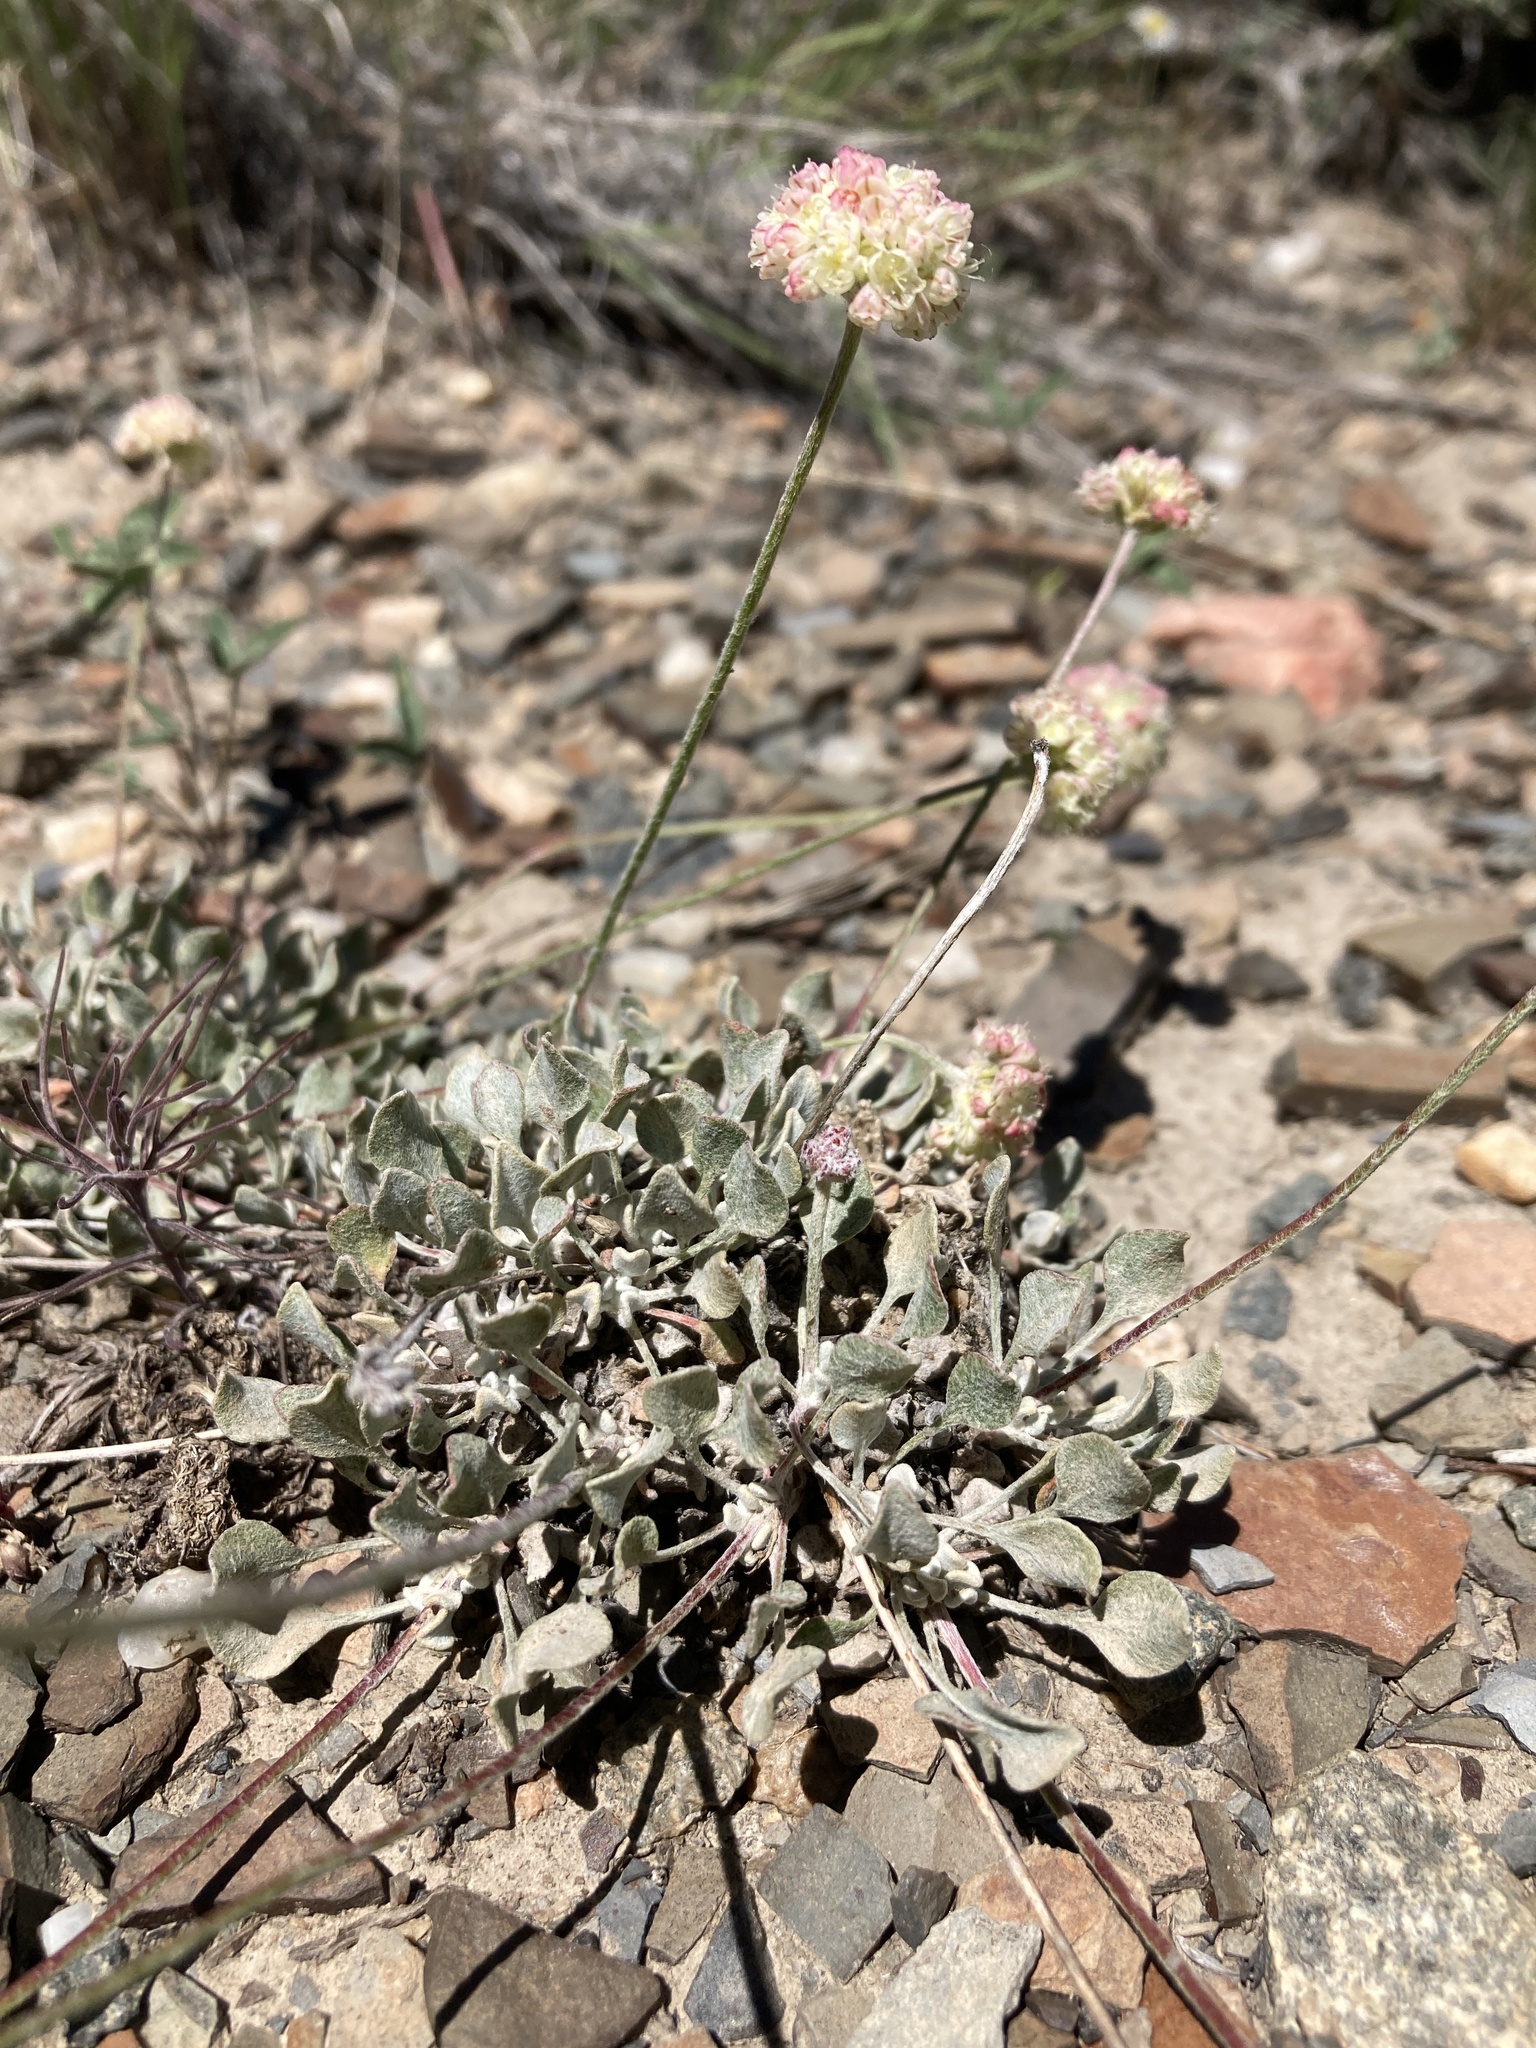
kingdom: Plantae
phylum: Tracheophyta
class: Magnoliopsida
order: Caryophyllales
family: Polygonaceae
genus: Eriogonum
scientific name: Eriogonum ovalifolium
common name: Cushion buckwheat
